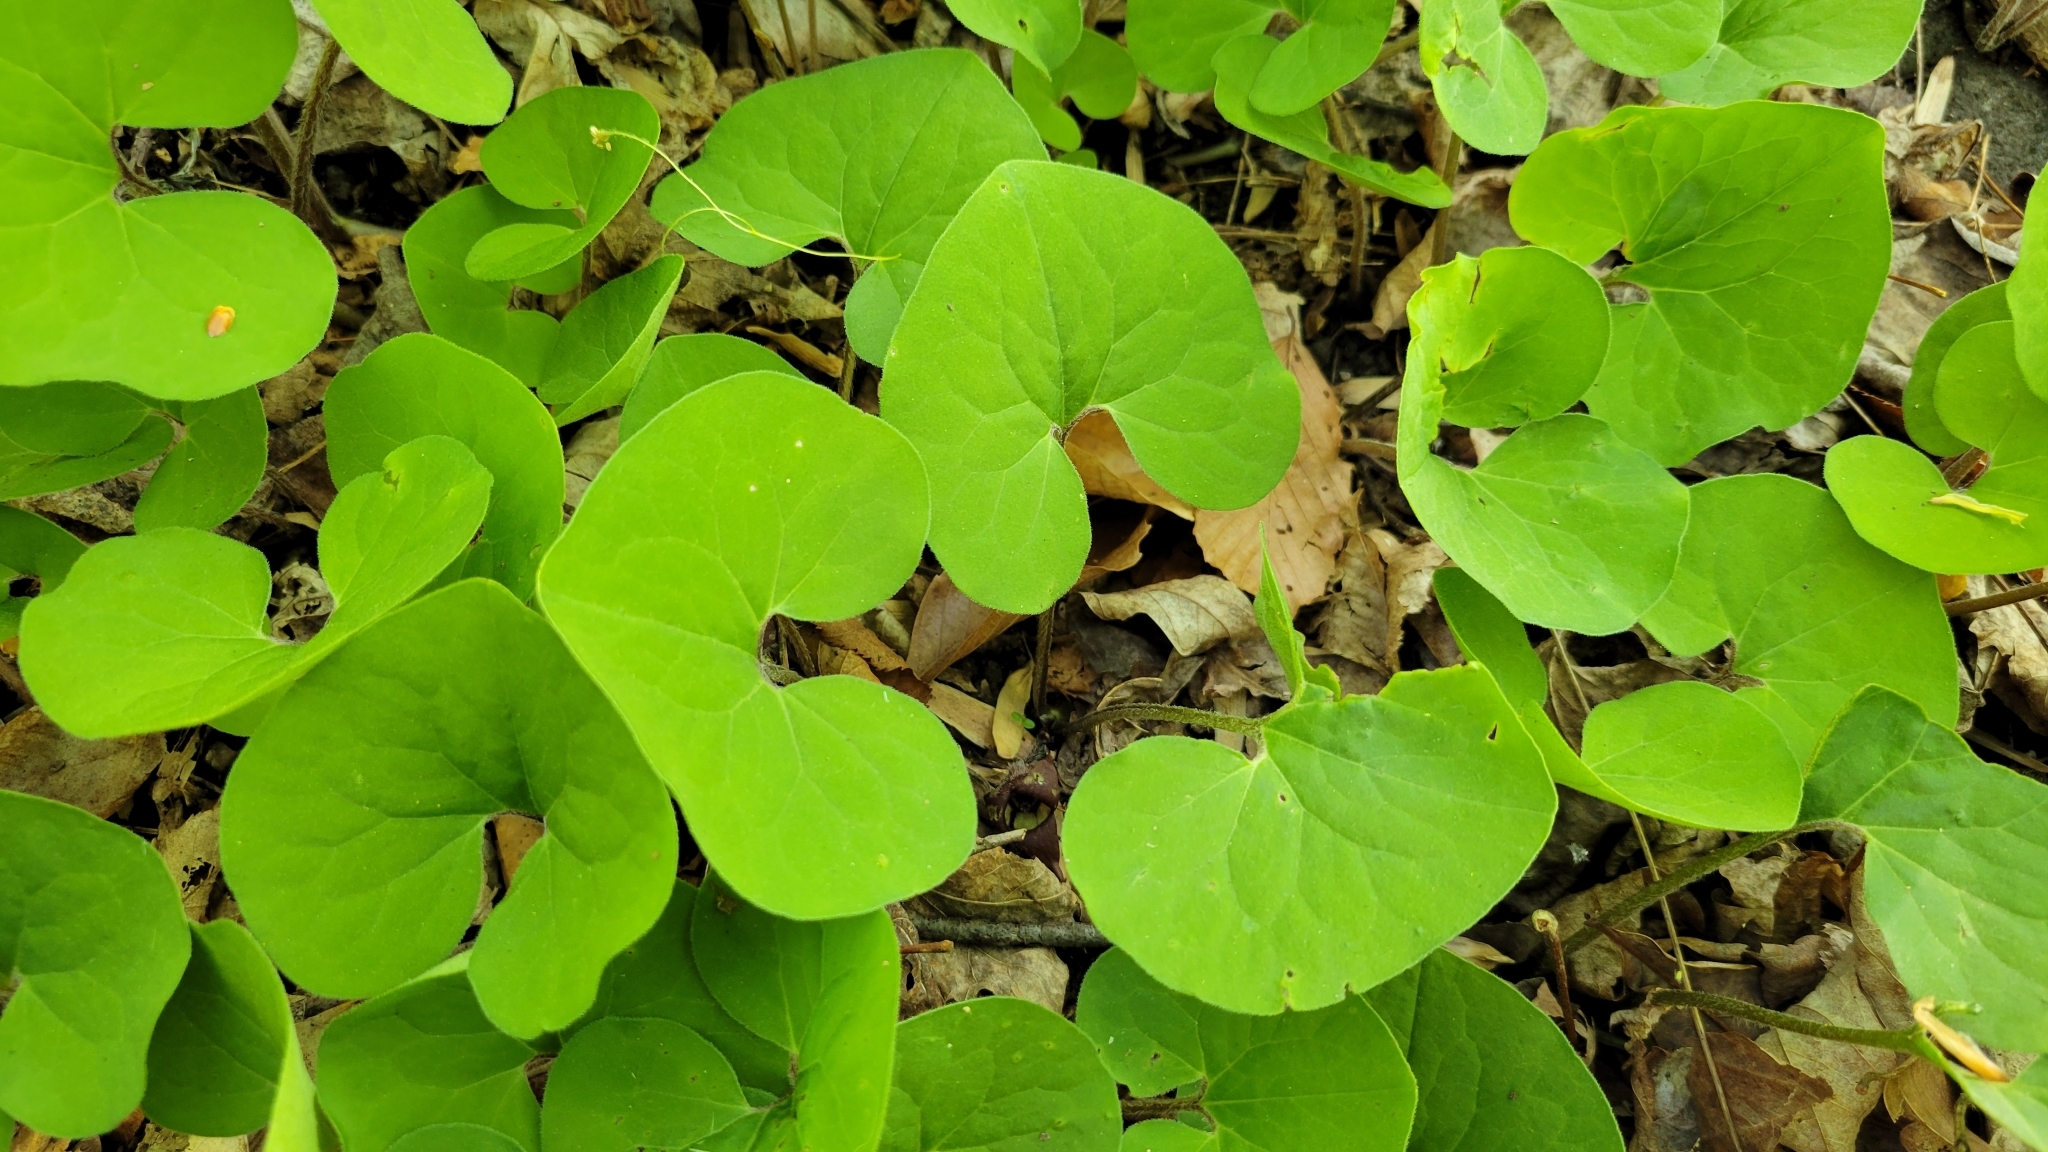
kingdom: Plantae
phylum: Tracheophyta
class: Magnoliopsida
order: Piperales
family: Aristolochiaceae
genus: Asarum
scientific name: Asarum canadense
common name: Wild ginger
